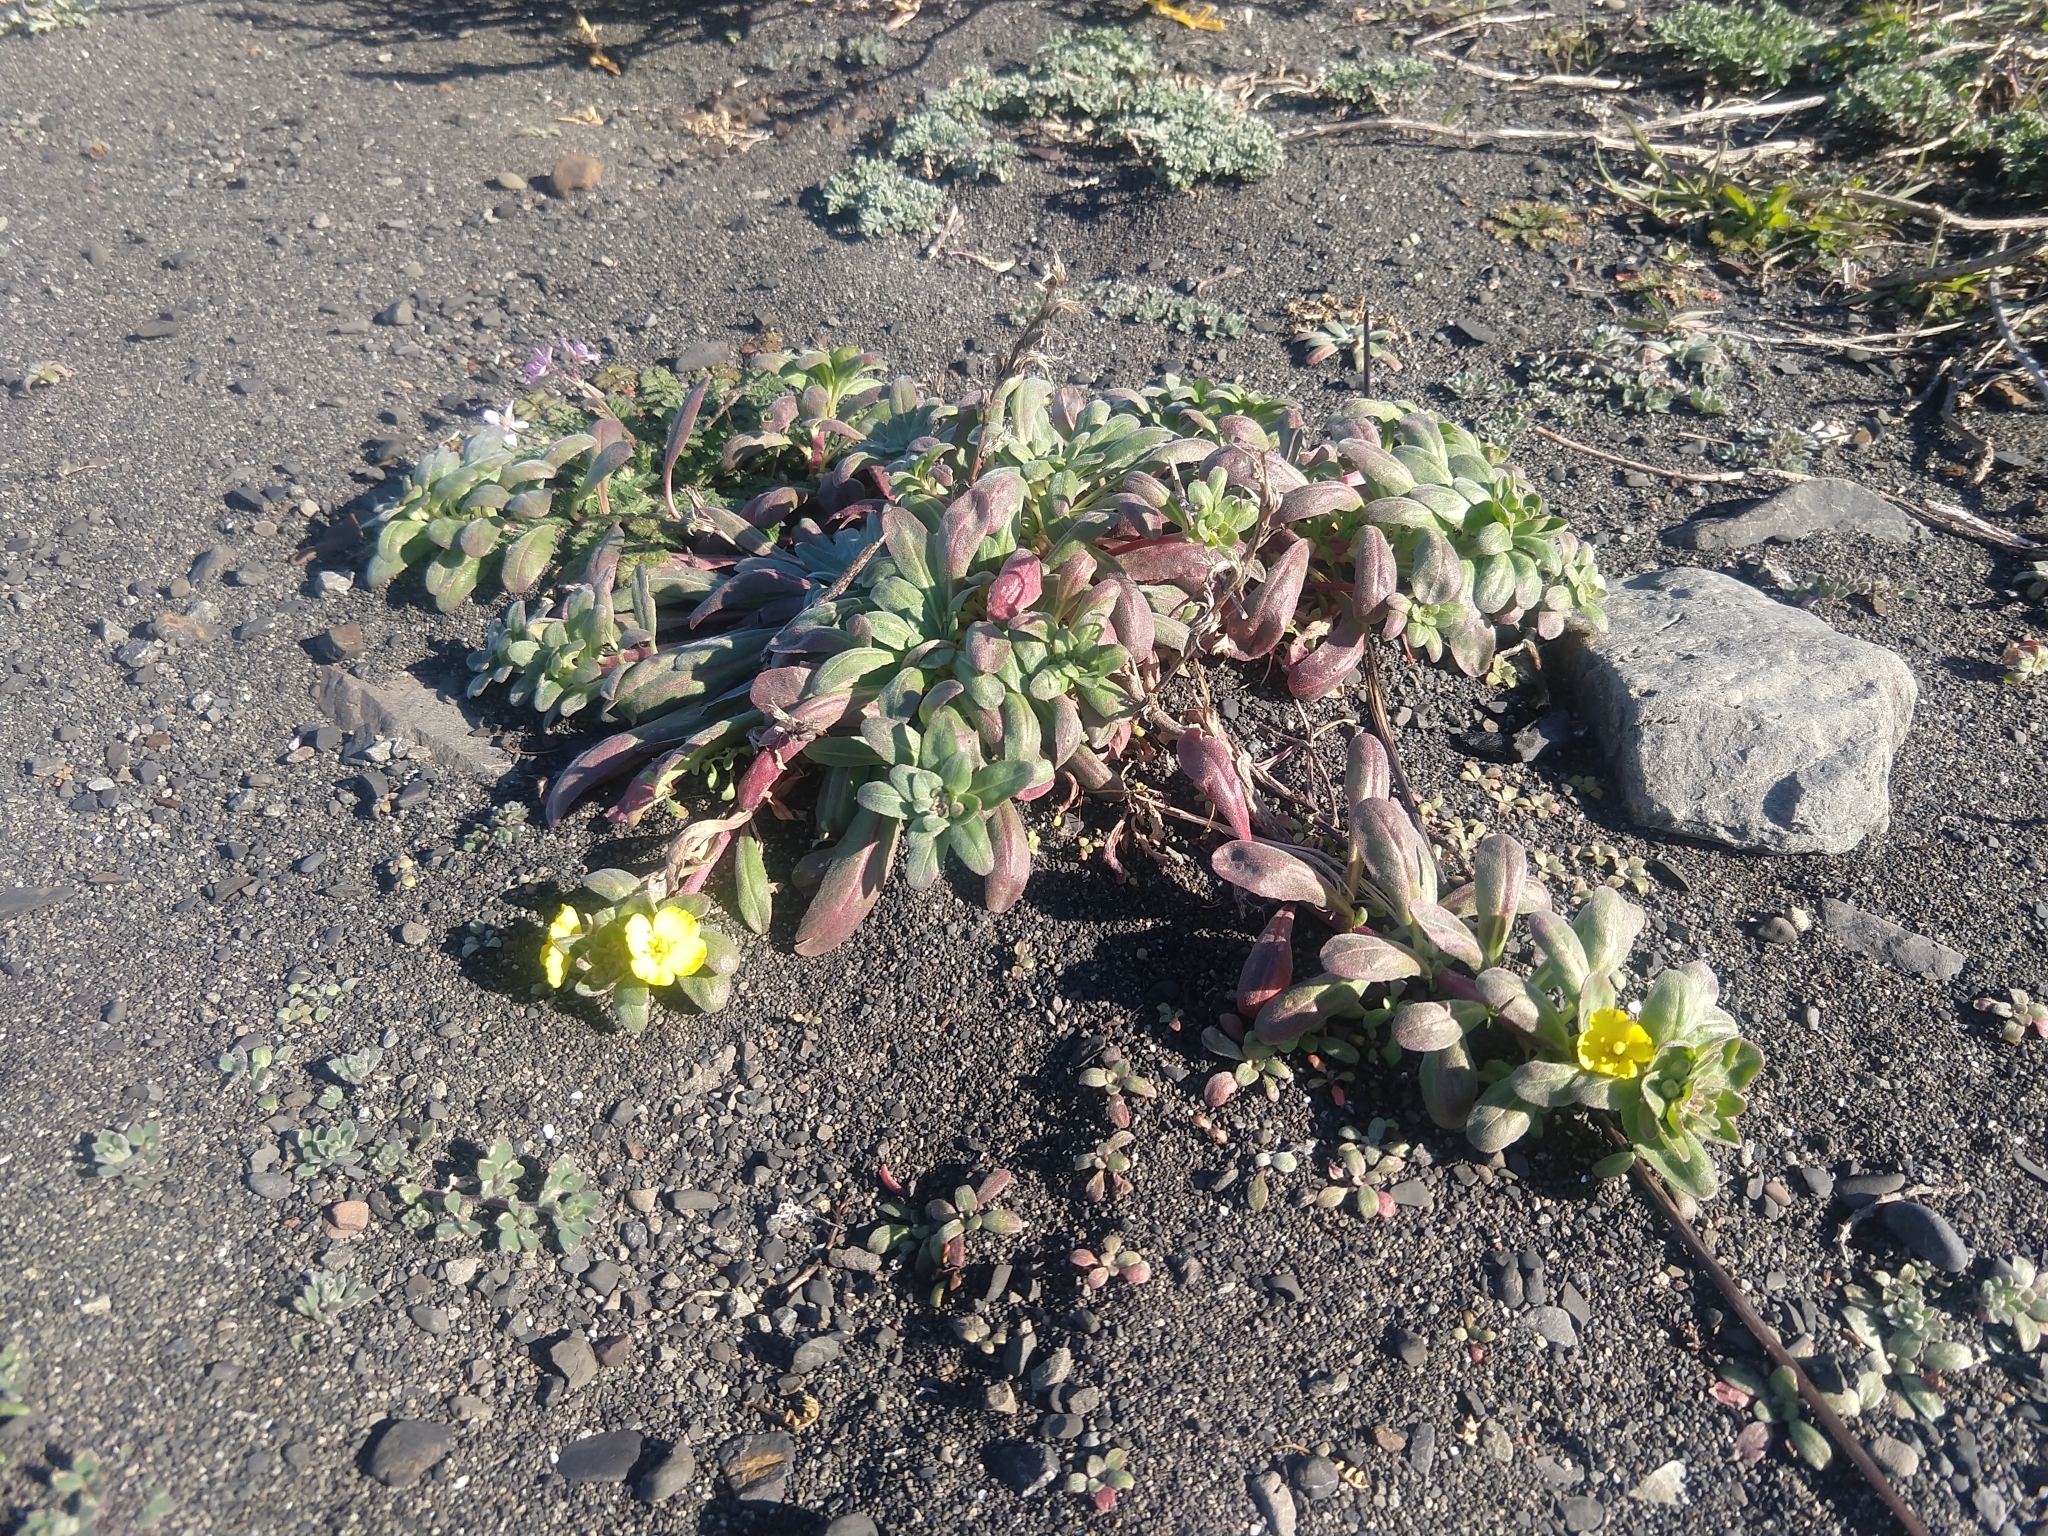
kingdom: Plantae
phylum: Tracheophyta
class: Magnoliopsida
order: Myrtales
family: Onagraceae
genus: Camissoniopsis
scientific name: Camissoniopsis cheiranthifolia
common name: Beach suncup
